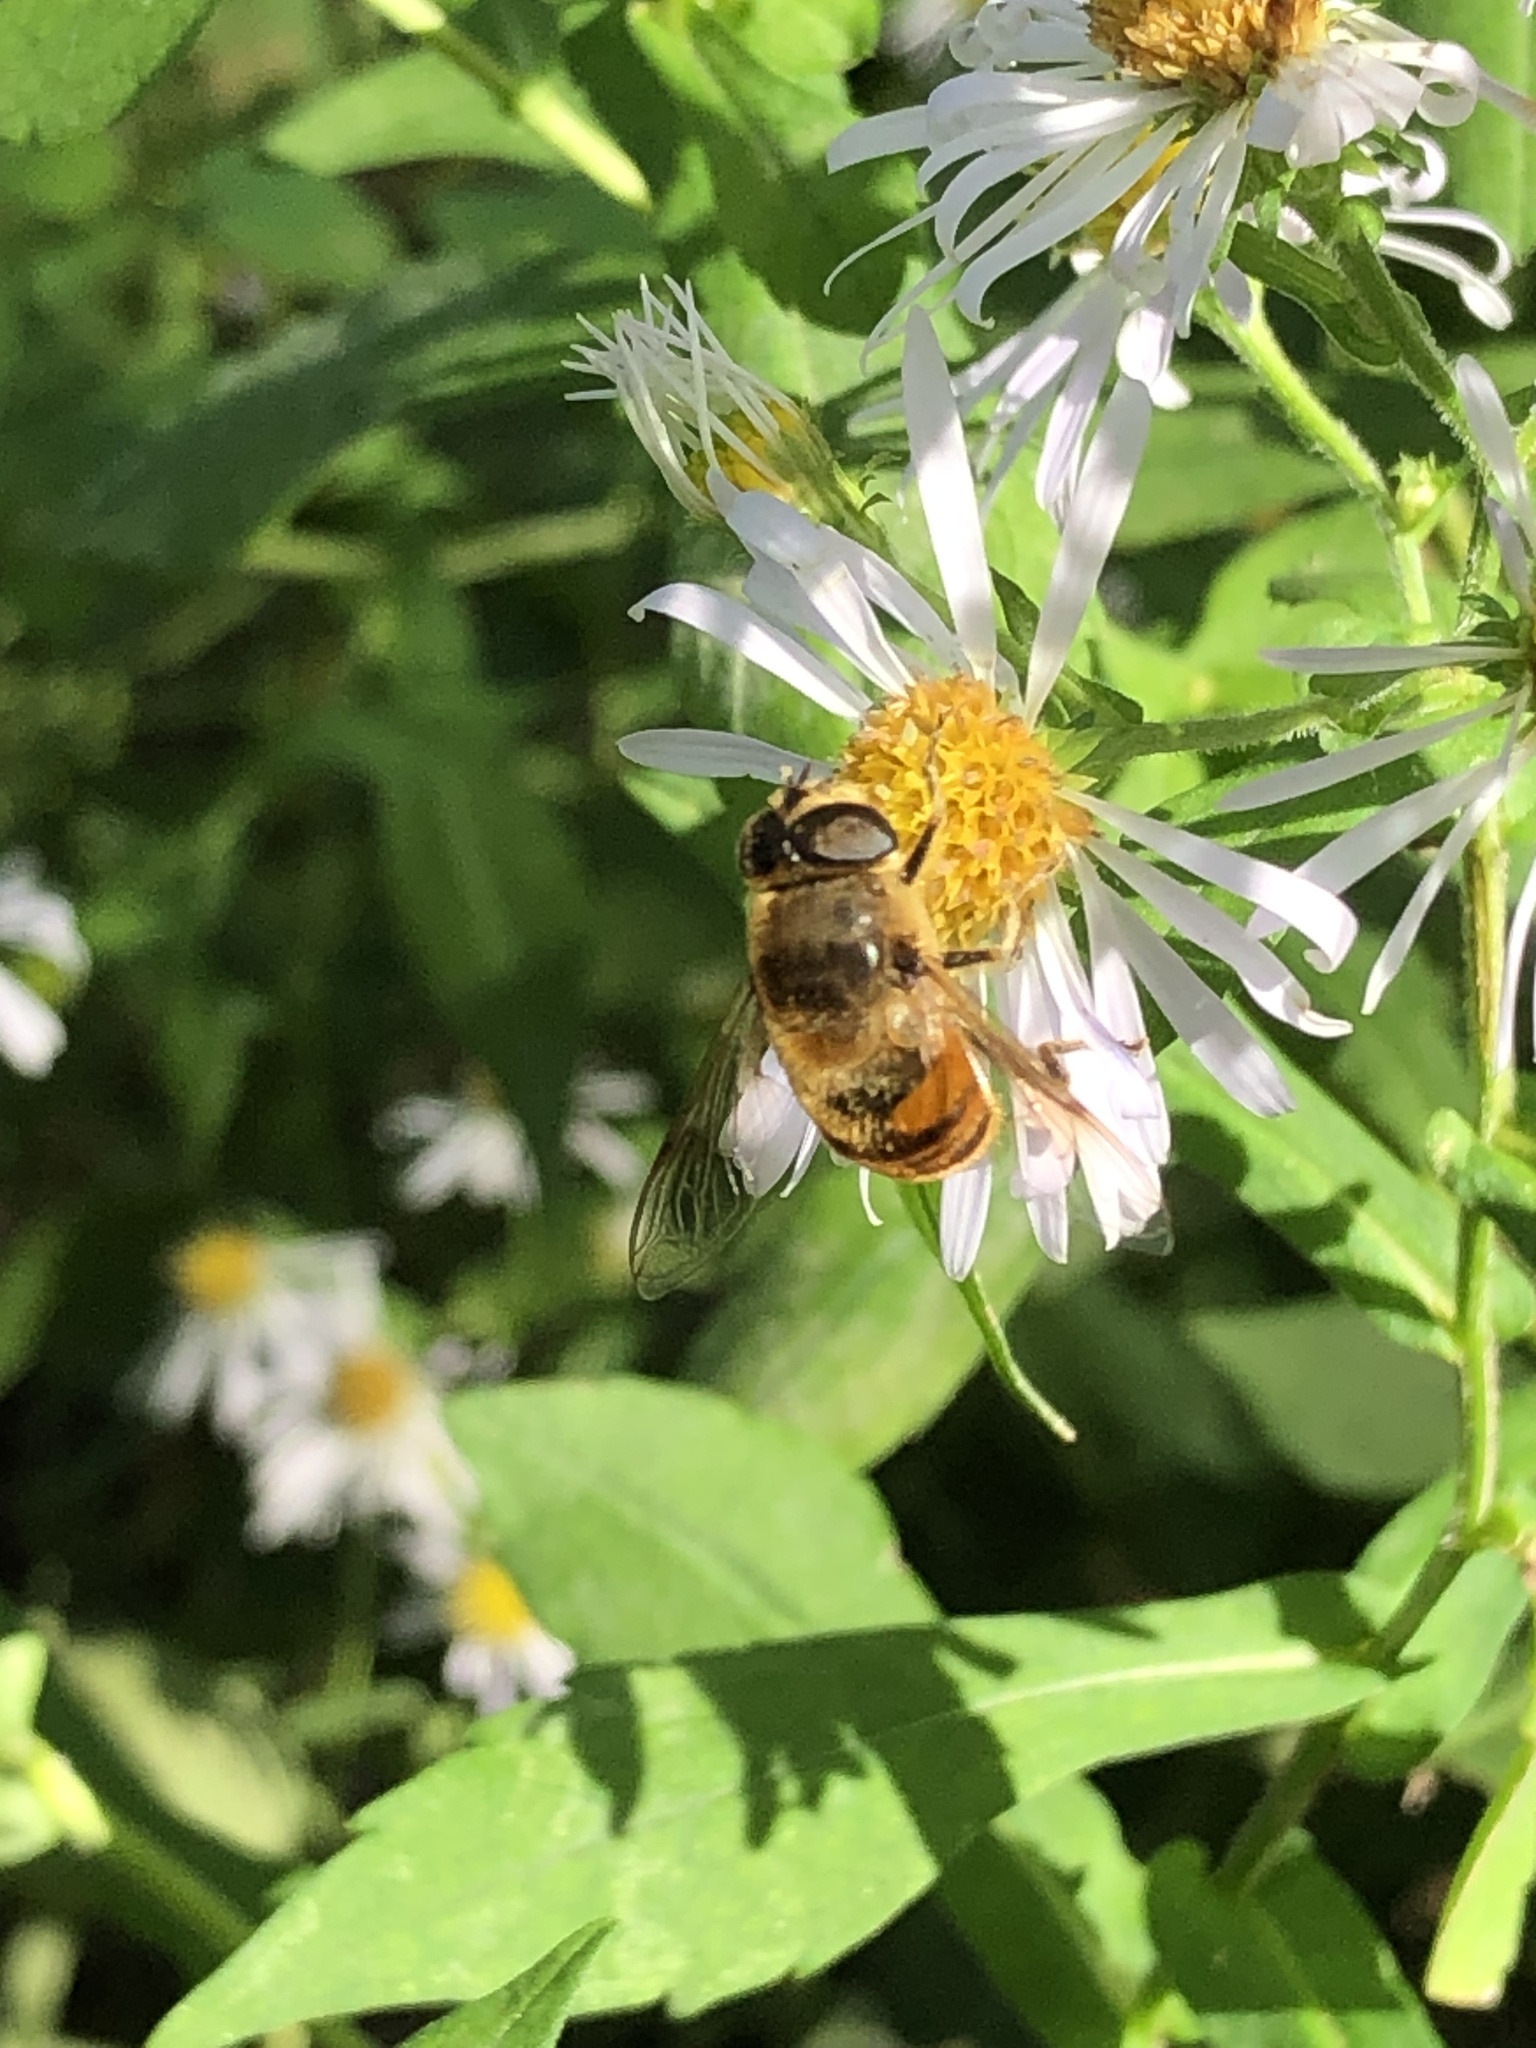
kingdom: Animalia
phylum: Arthropoda
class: Insecta
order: Diptera
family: Syrphidae
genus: Eristalis
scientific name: Eristalis tenax
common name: Drone fly
